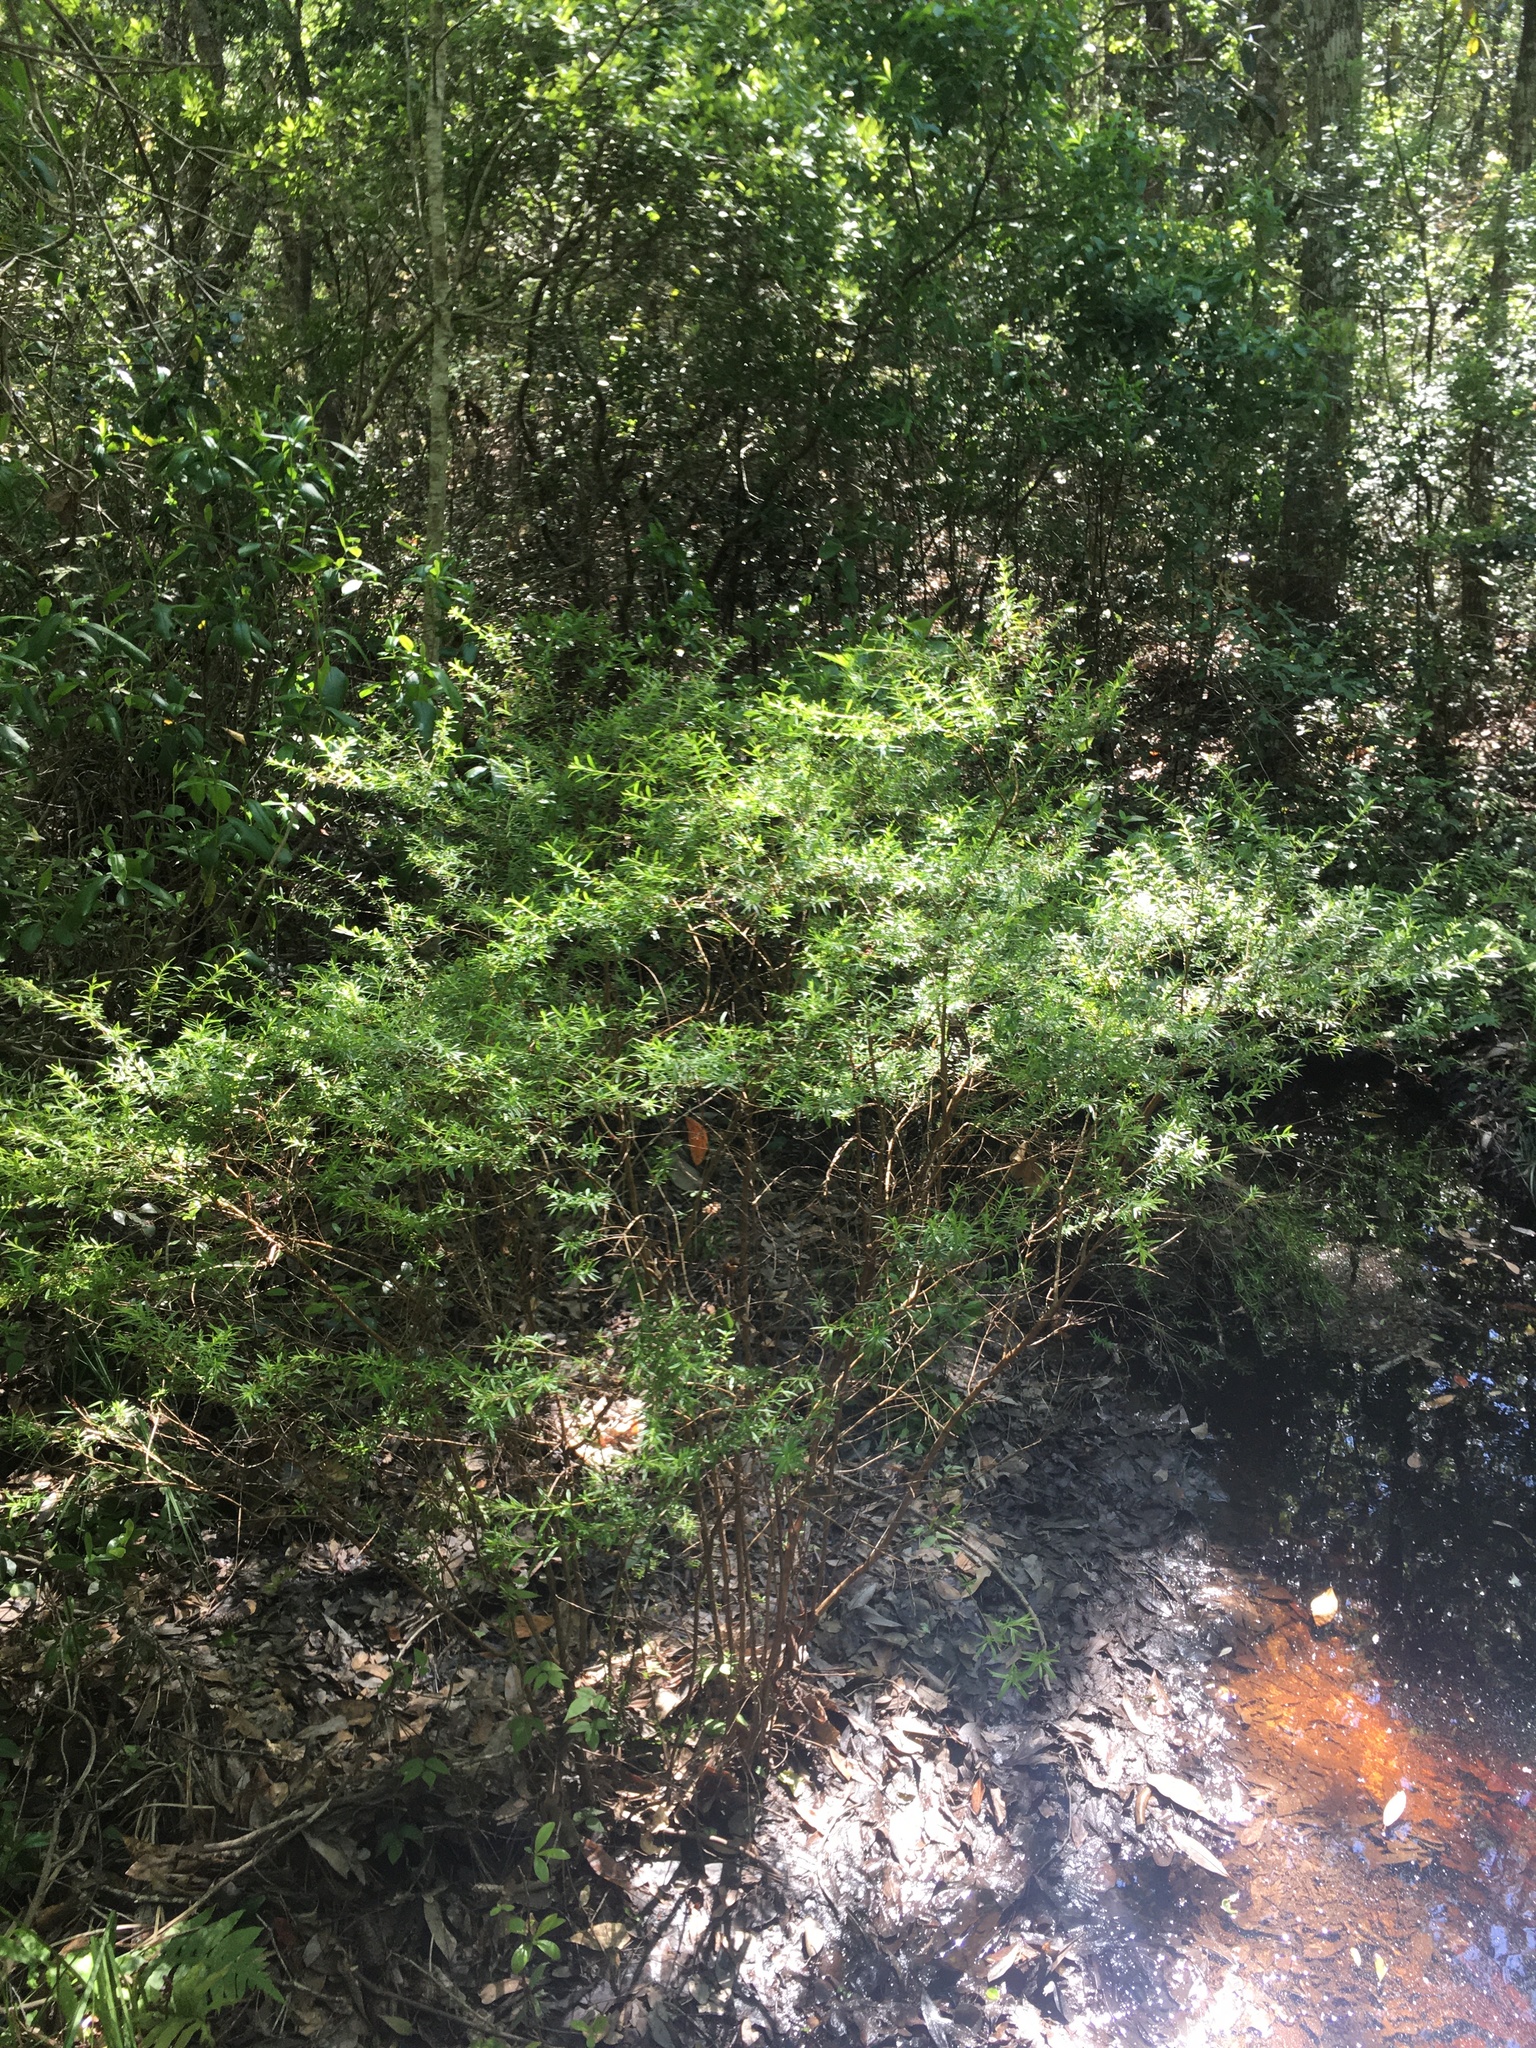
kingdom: Plantae
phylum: Tracheophyta
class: Magnoliopsida
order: Malpighiales
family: Hypericaceae
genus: Hypericum
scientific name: Hypericum galioides
